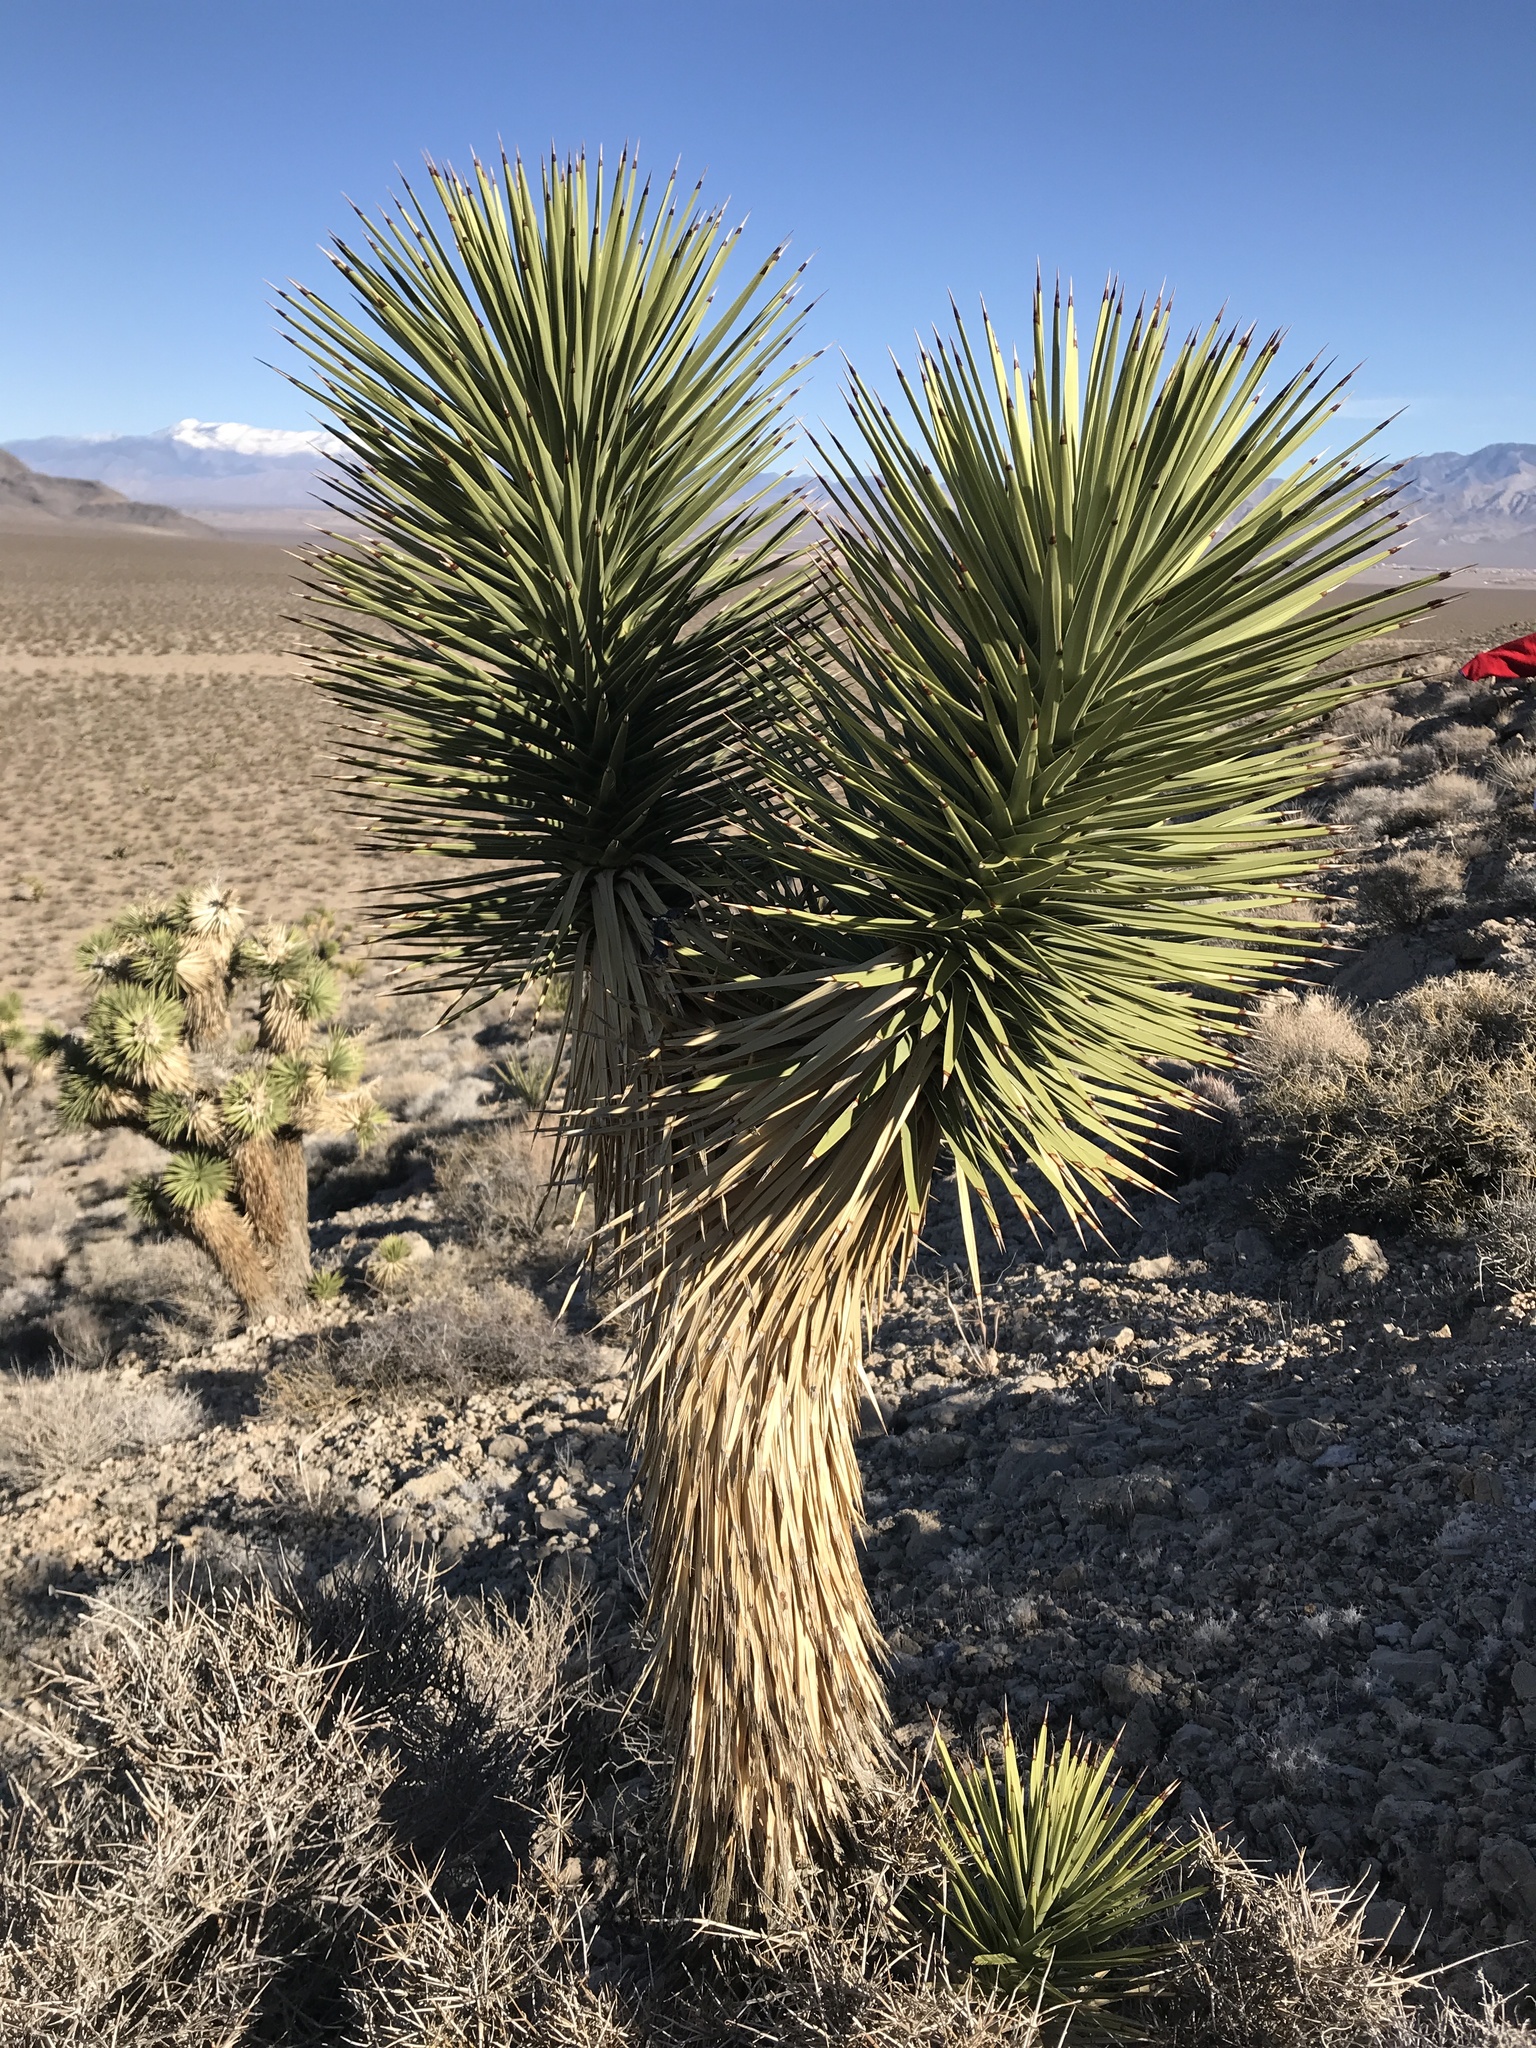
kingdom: Plantae
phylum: Tracheophyta
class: Liliopsida
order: Asparagales
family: Asparagaceae
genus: Yucca
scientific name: Yucca brevifolia
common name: Joshua tree
